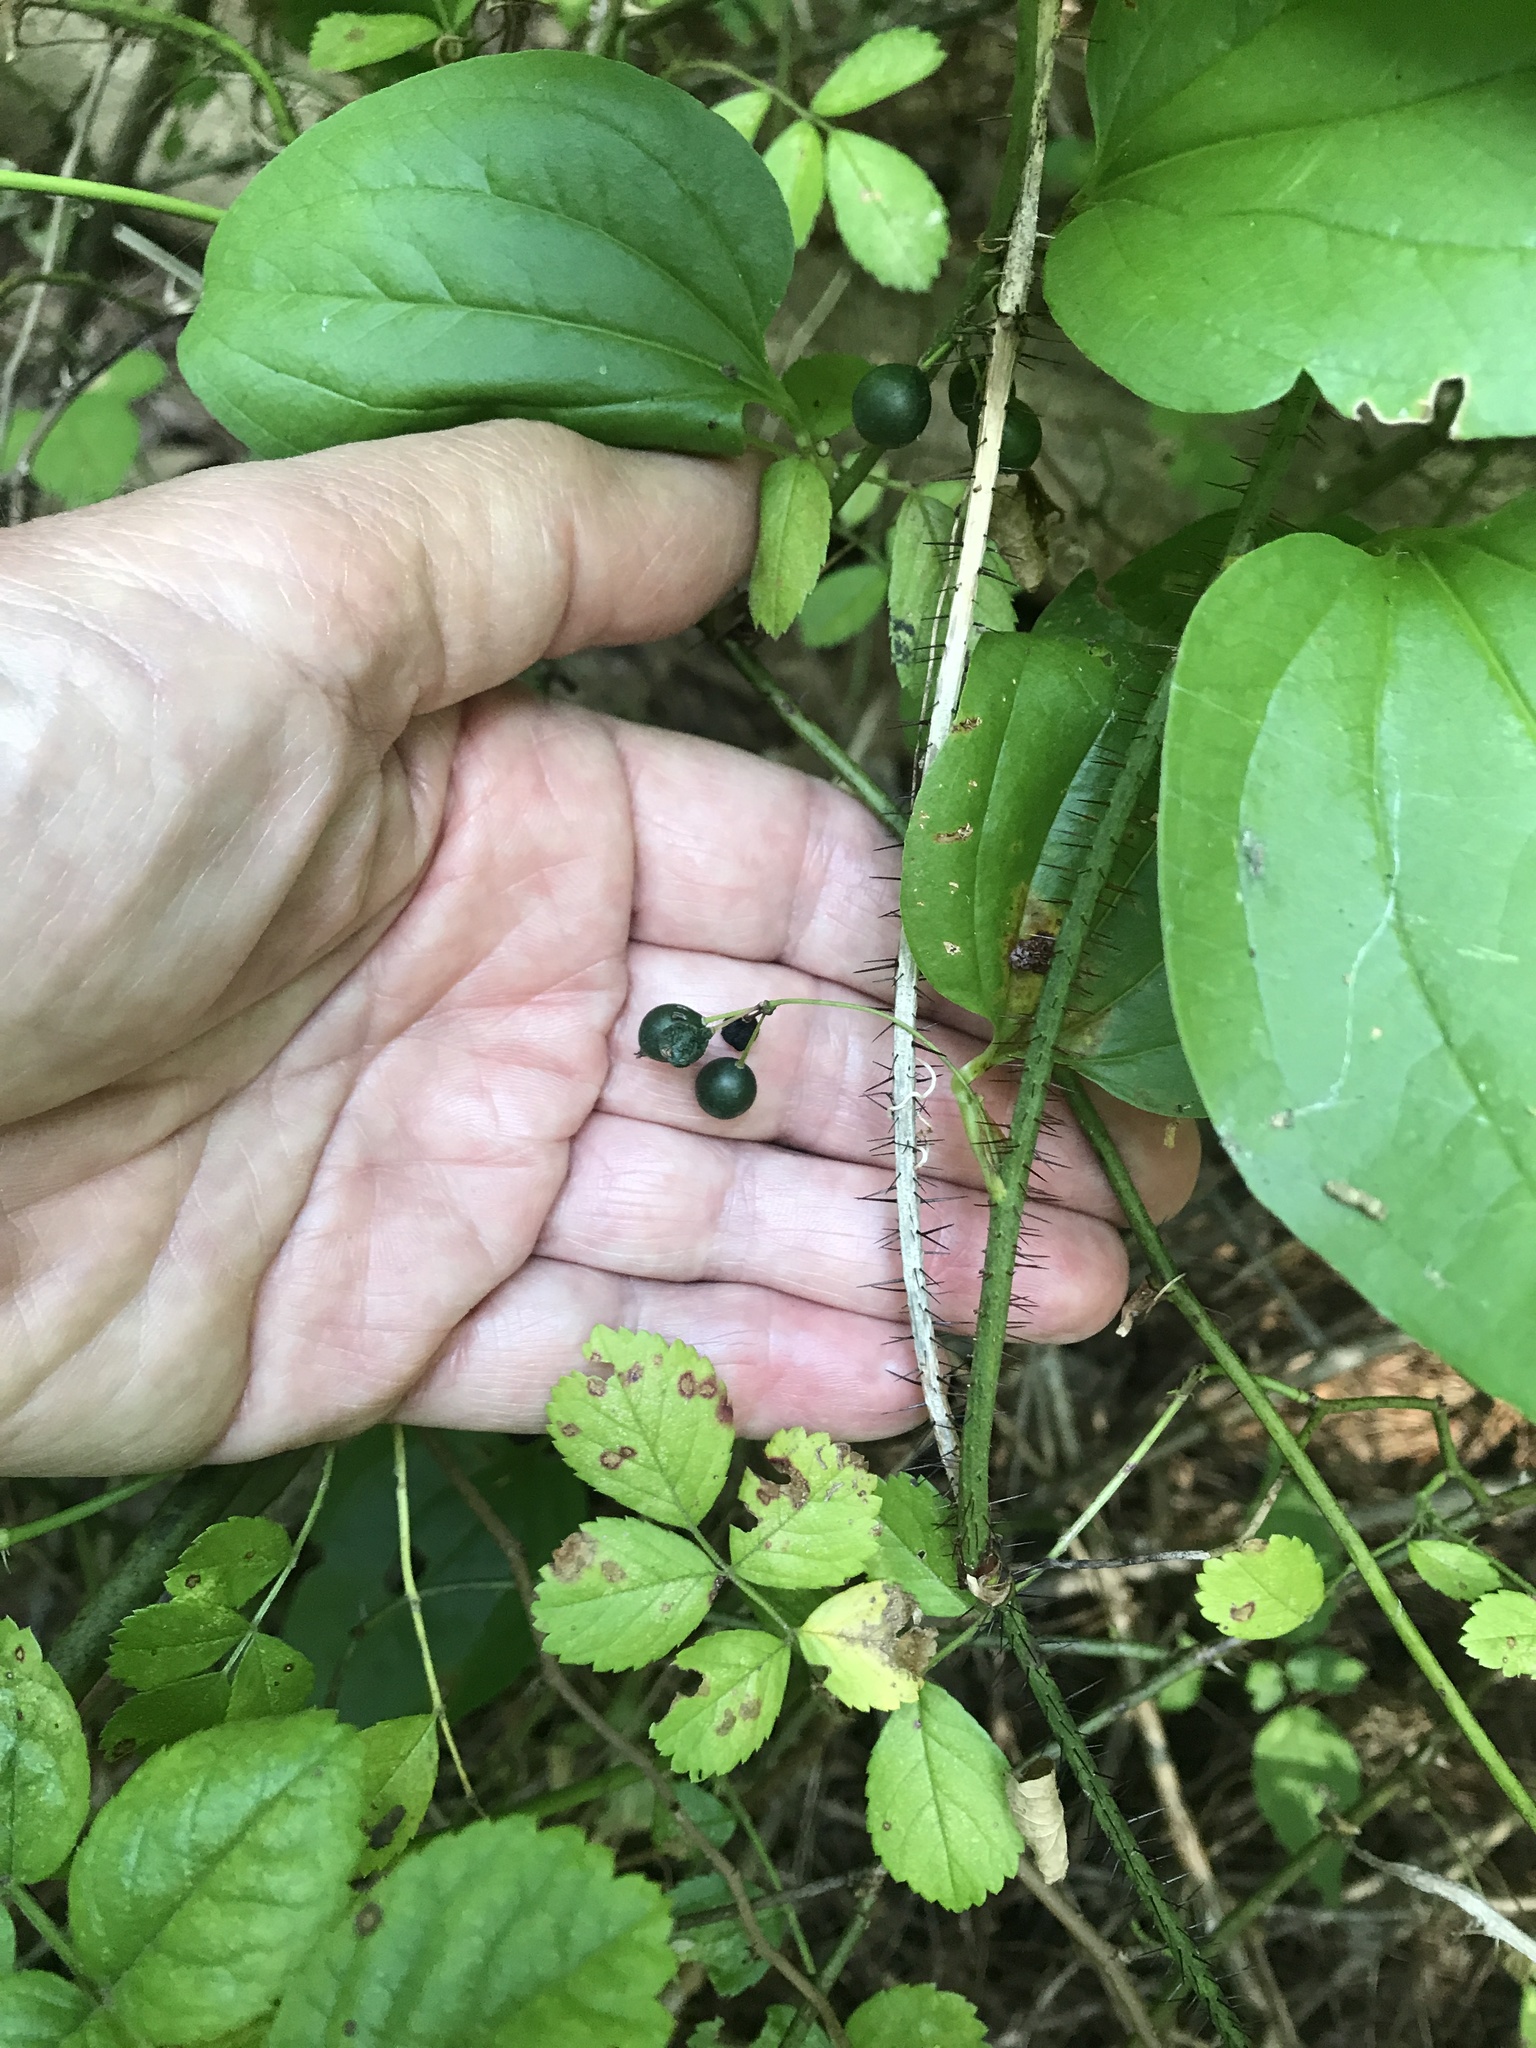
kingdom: Plantae
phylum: Tracheophyta
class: Liliopsida
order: Liliales
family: Smilacaceae
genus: Smilax
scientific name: Smilax tamnoides
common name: Hellfetter
